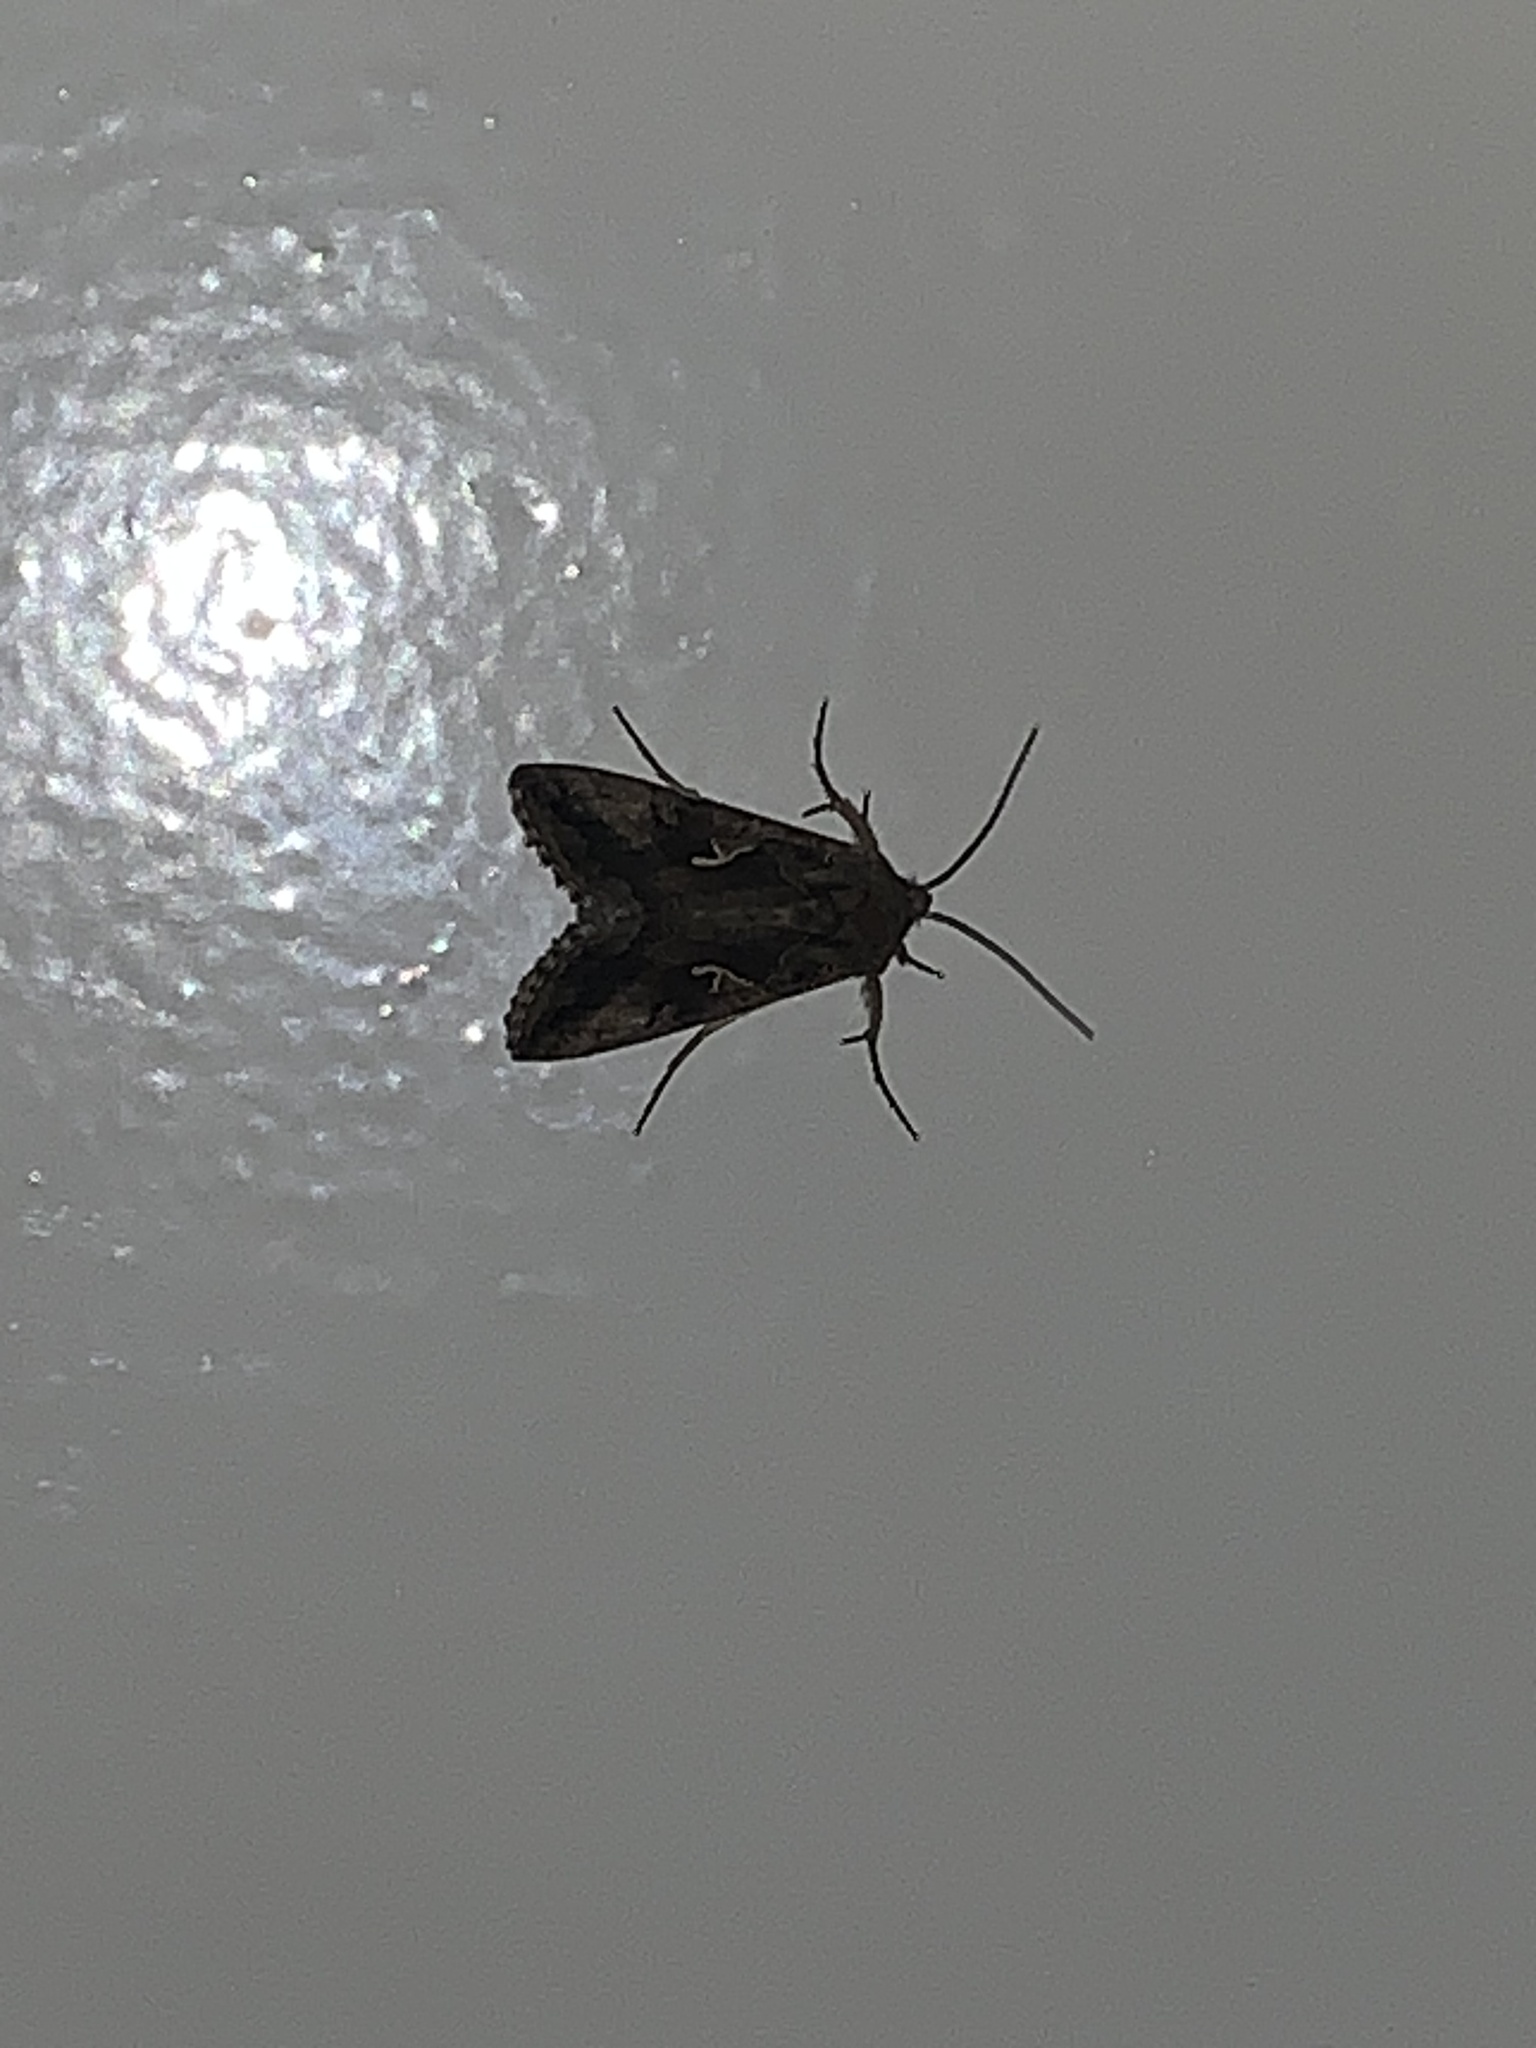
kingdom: Animalia
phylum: Arthropoda
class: Insecta
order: Lepidoptera
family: Noctuidae
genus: Autographa
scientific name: Autographa gamma
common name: Silver y
